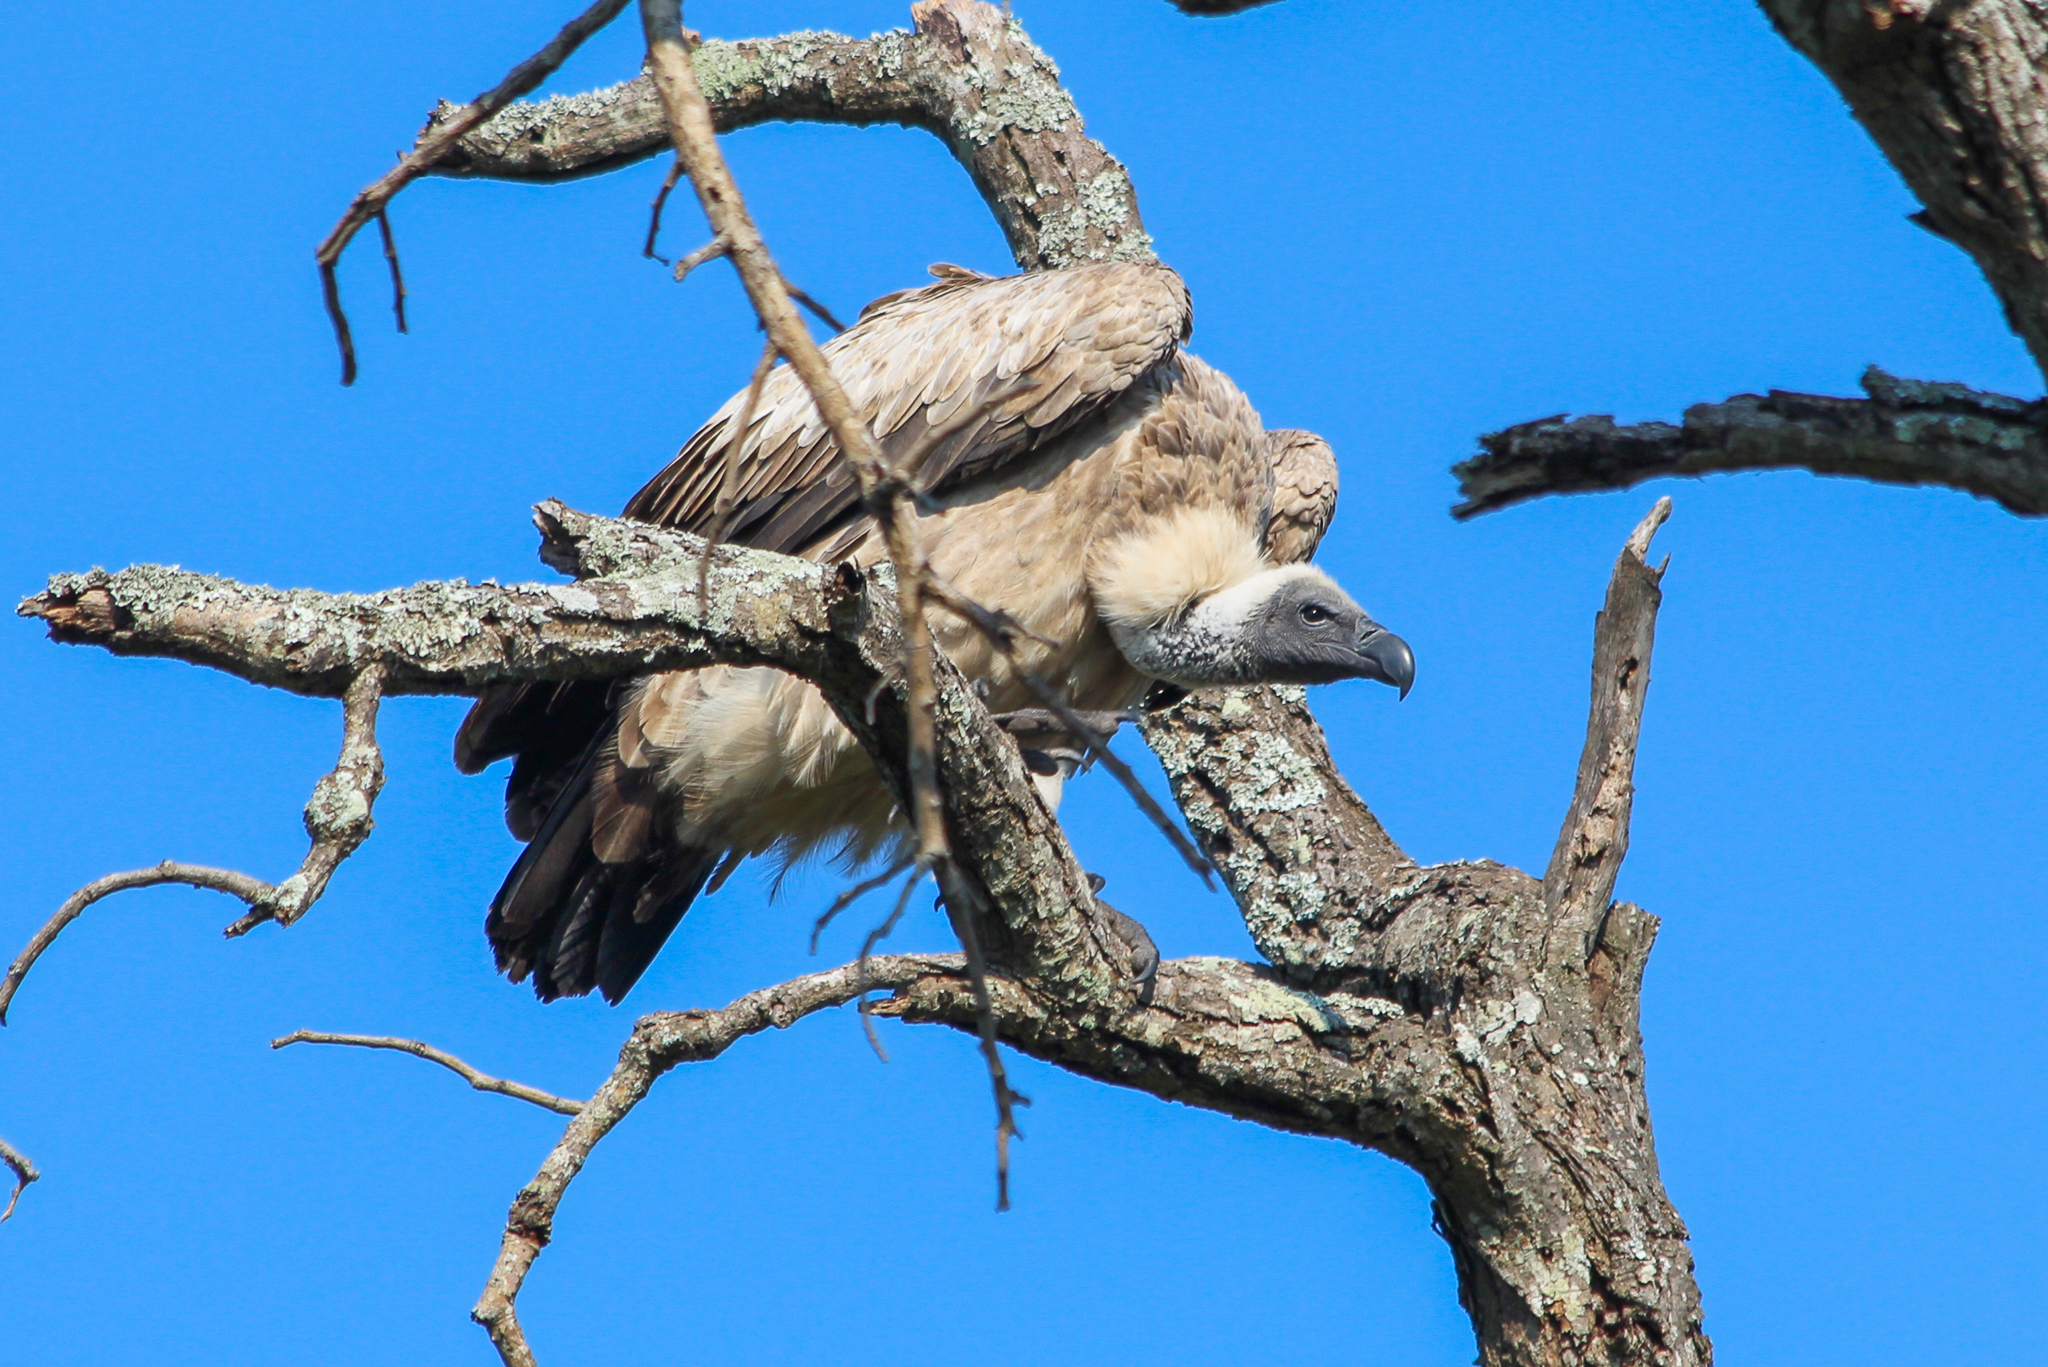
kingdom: Animalia
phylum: Chordata
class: Aves
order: Accipitriformes
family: Accipitridae
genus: Gyps
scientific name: Gyps africanus
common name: White-backed vulture
